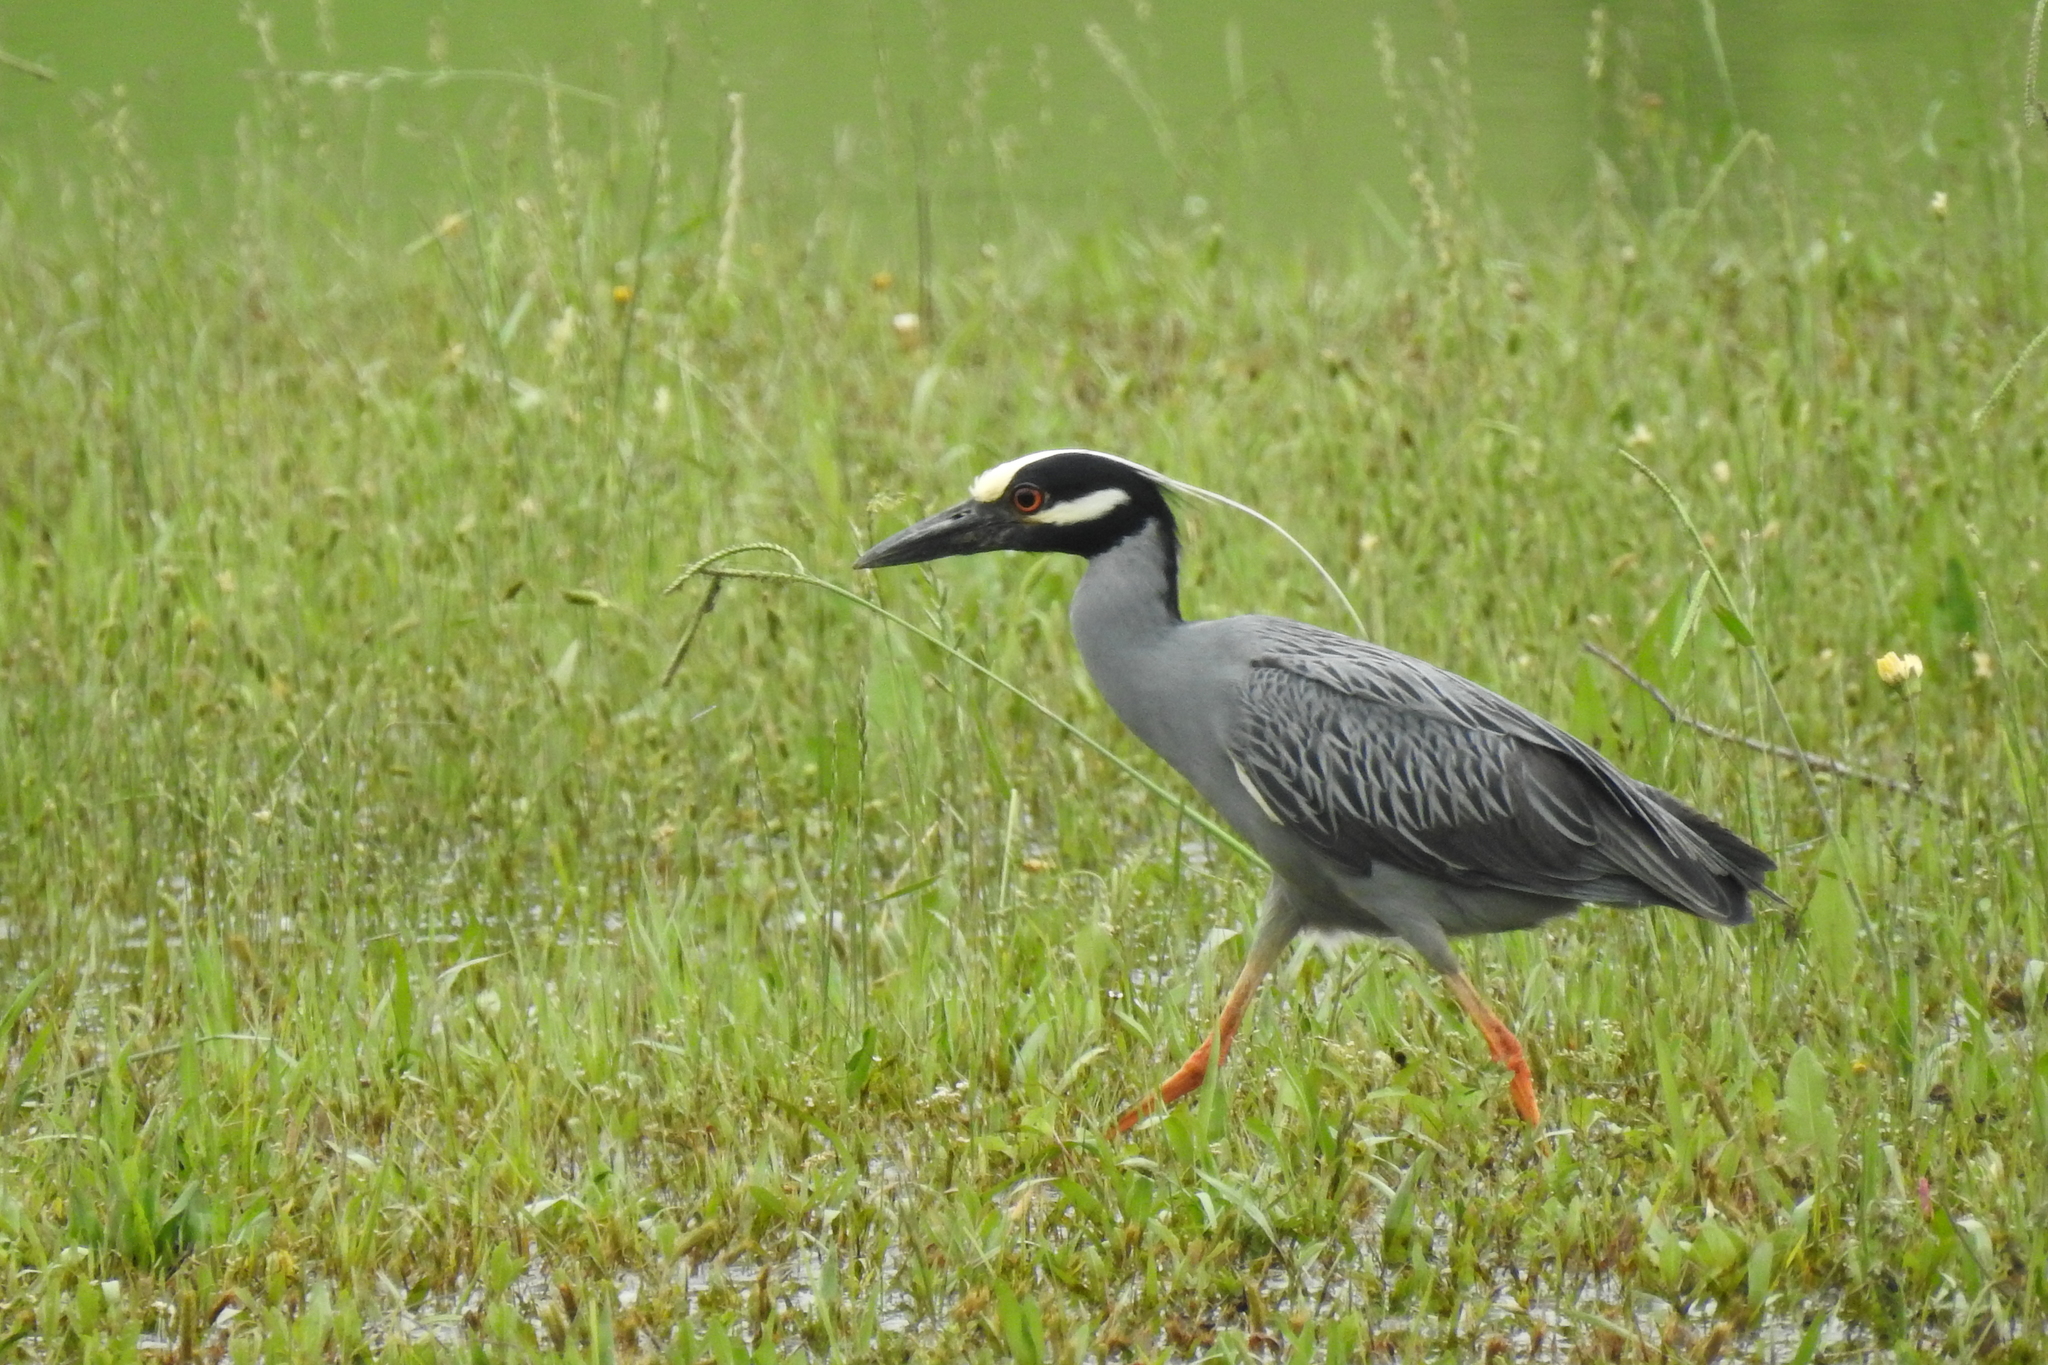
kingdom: Animalia
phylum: Chordata
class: Aves
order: Pelecaniformes
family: Ardeidae
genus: Nyctanassa
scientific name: Nyctanassa violacea
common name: Yellow-crowned night heron
